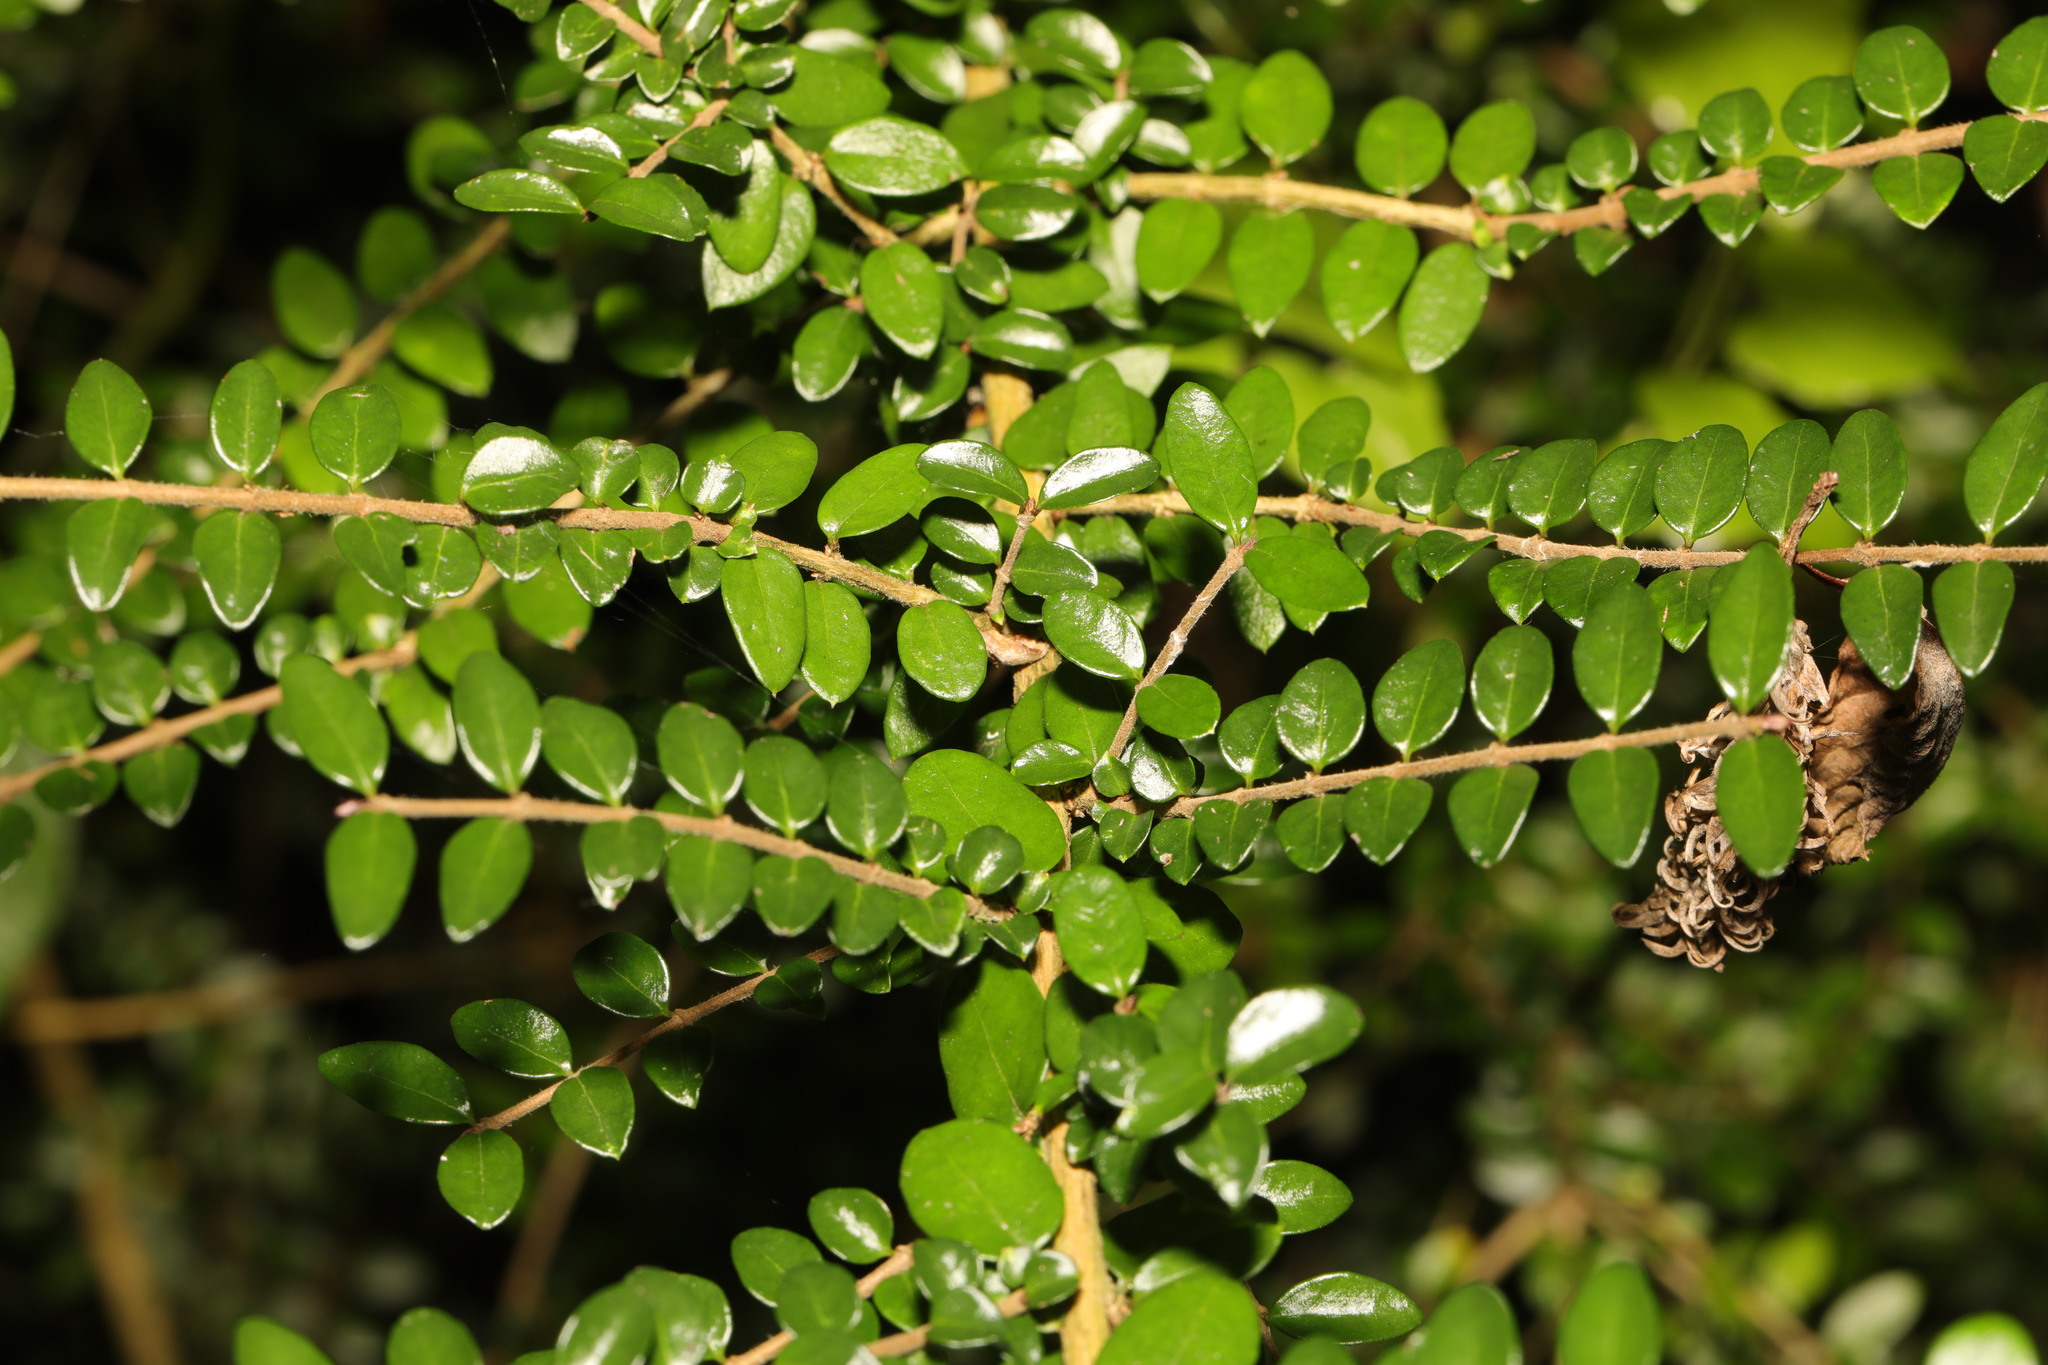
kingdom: Plantae
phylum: Tracheophyta
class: Magnoliopsida
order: Dipsacales
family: Caprifoliaceae
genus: Lonicera
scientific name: Lonicera pileata
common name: Box-leaved honeysuckle
